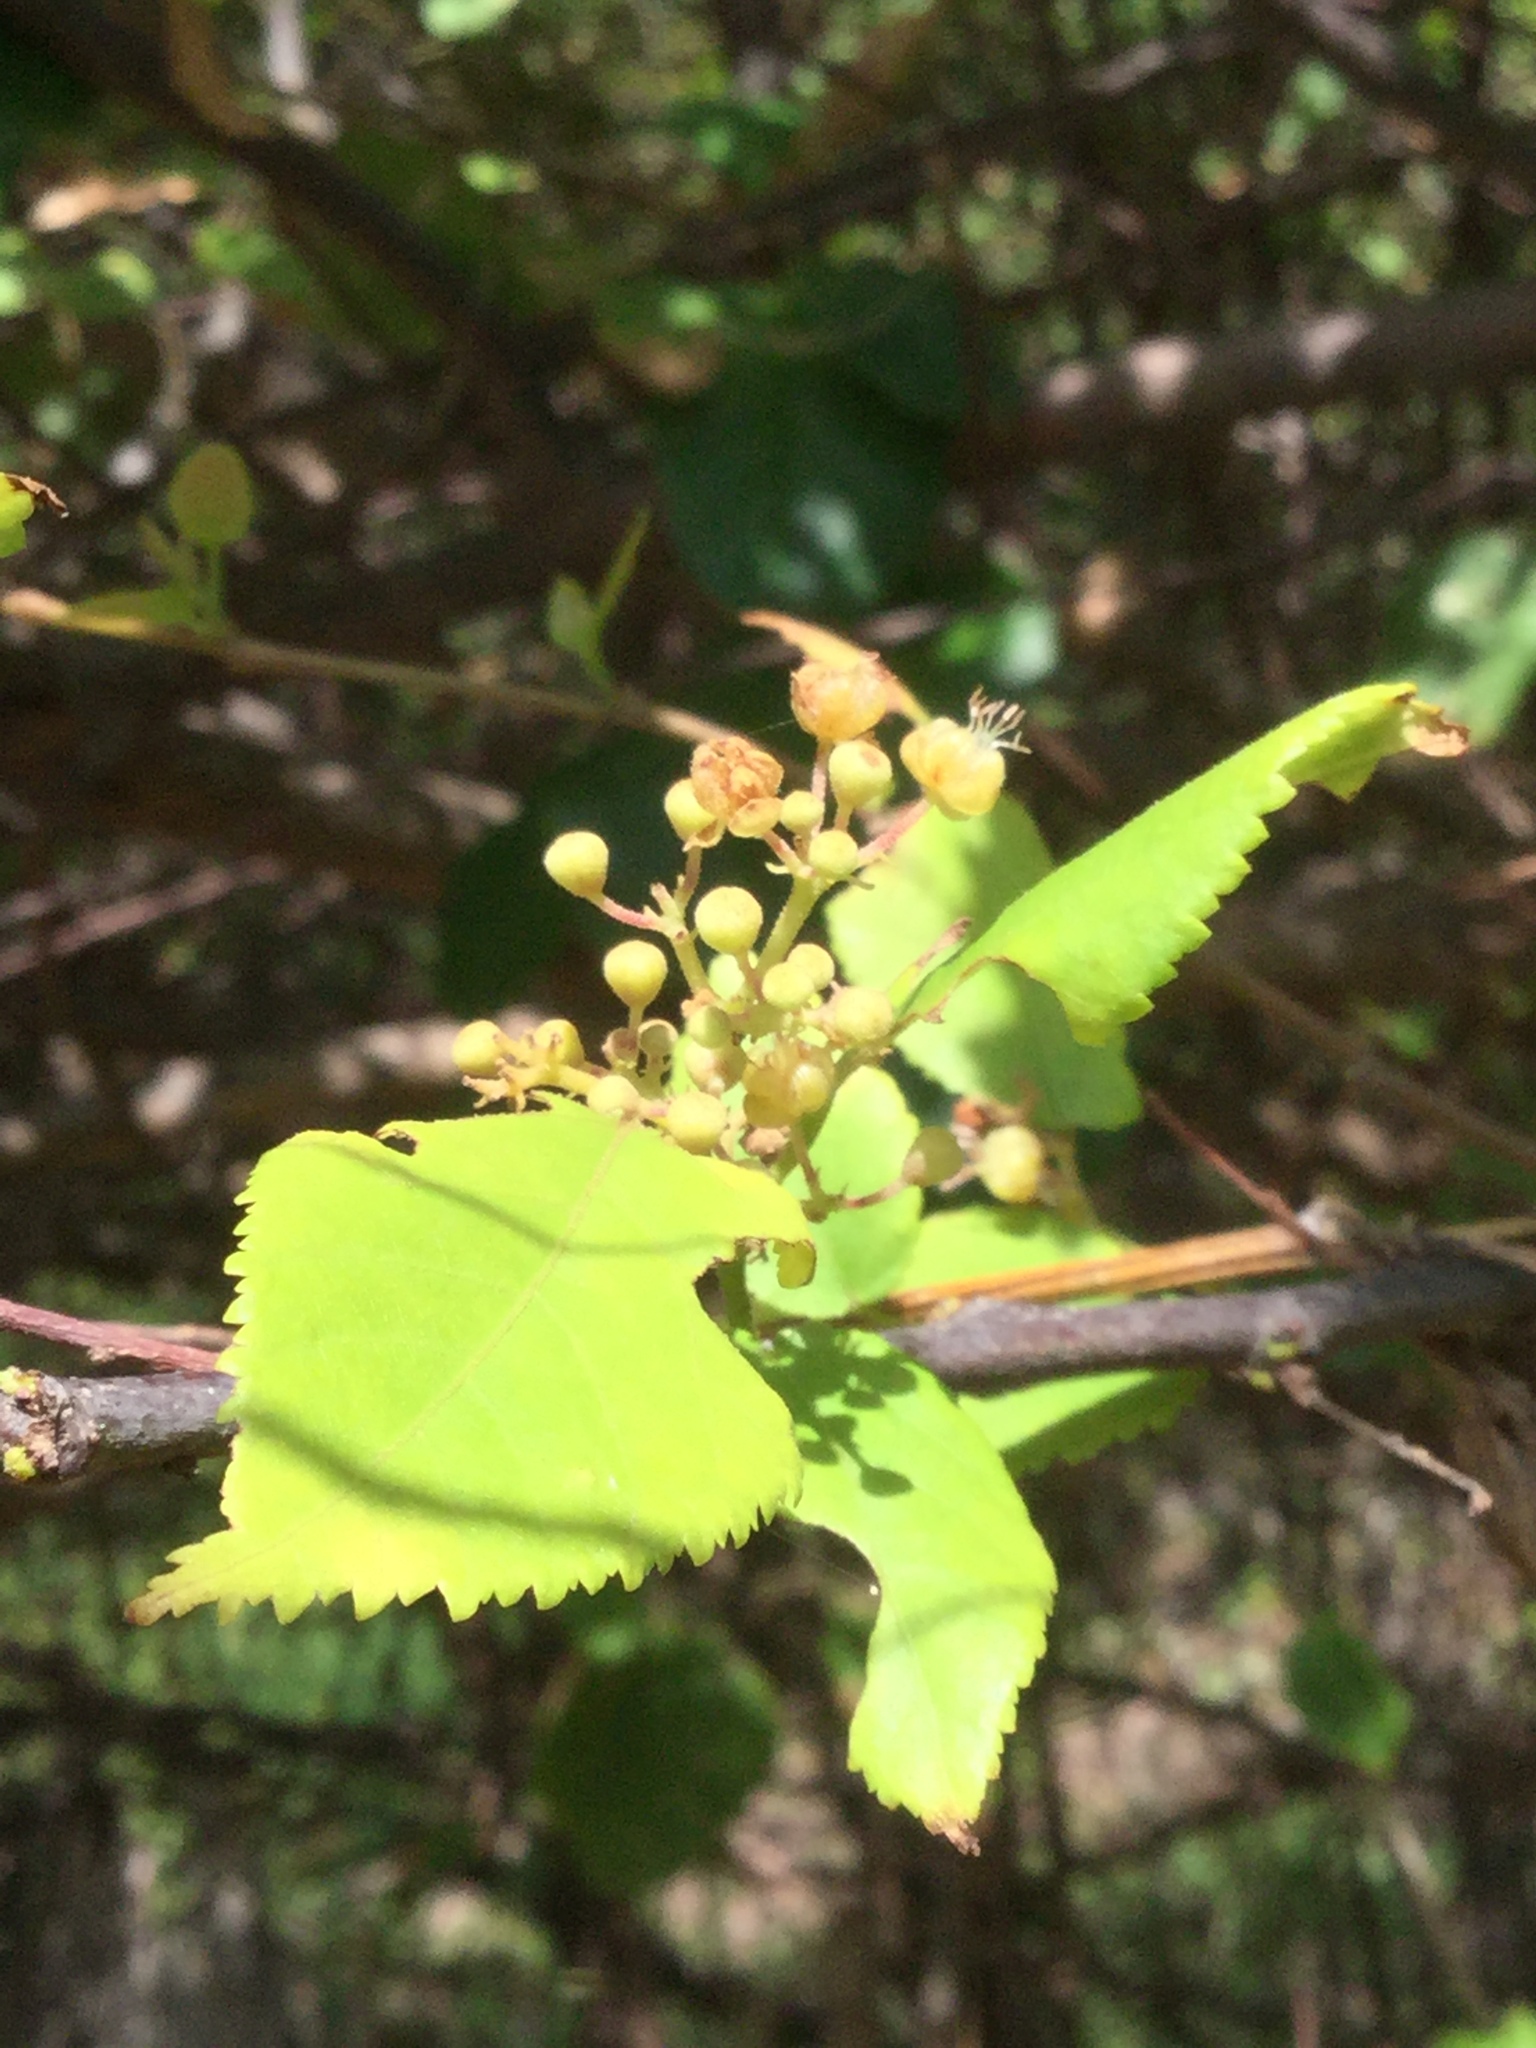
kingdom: Plantae
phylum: Tracheophyta
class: Magnoliopsida
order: Malvales
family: Malvaceae
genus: Guazuma
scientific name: Guazuma ulmifolia
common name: Bastard-cedar
